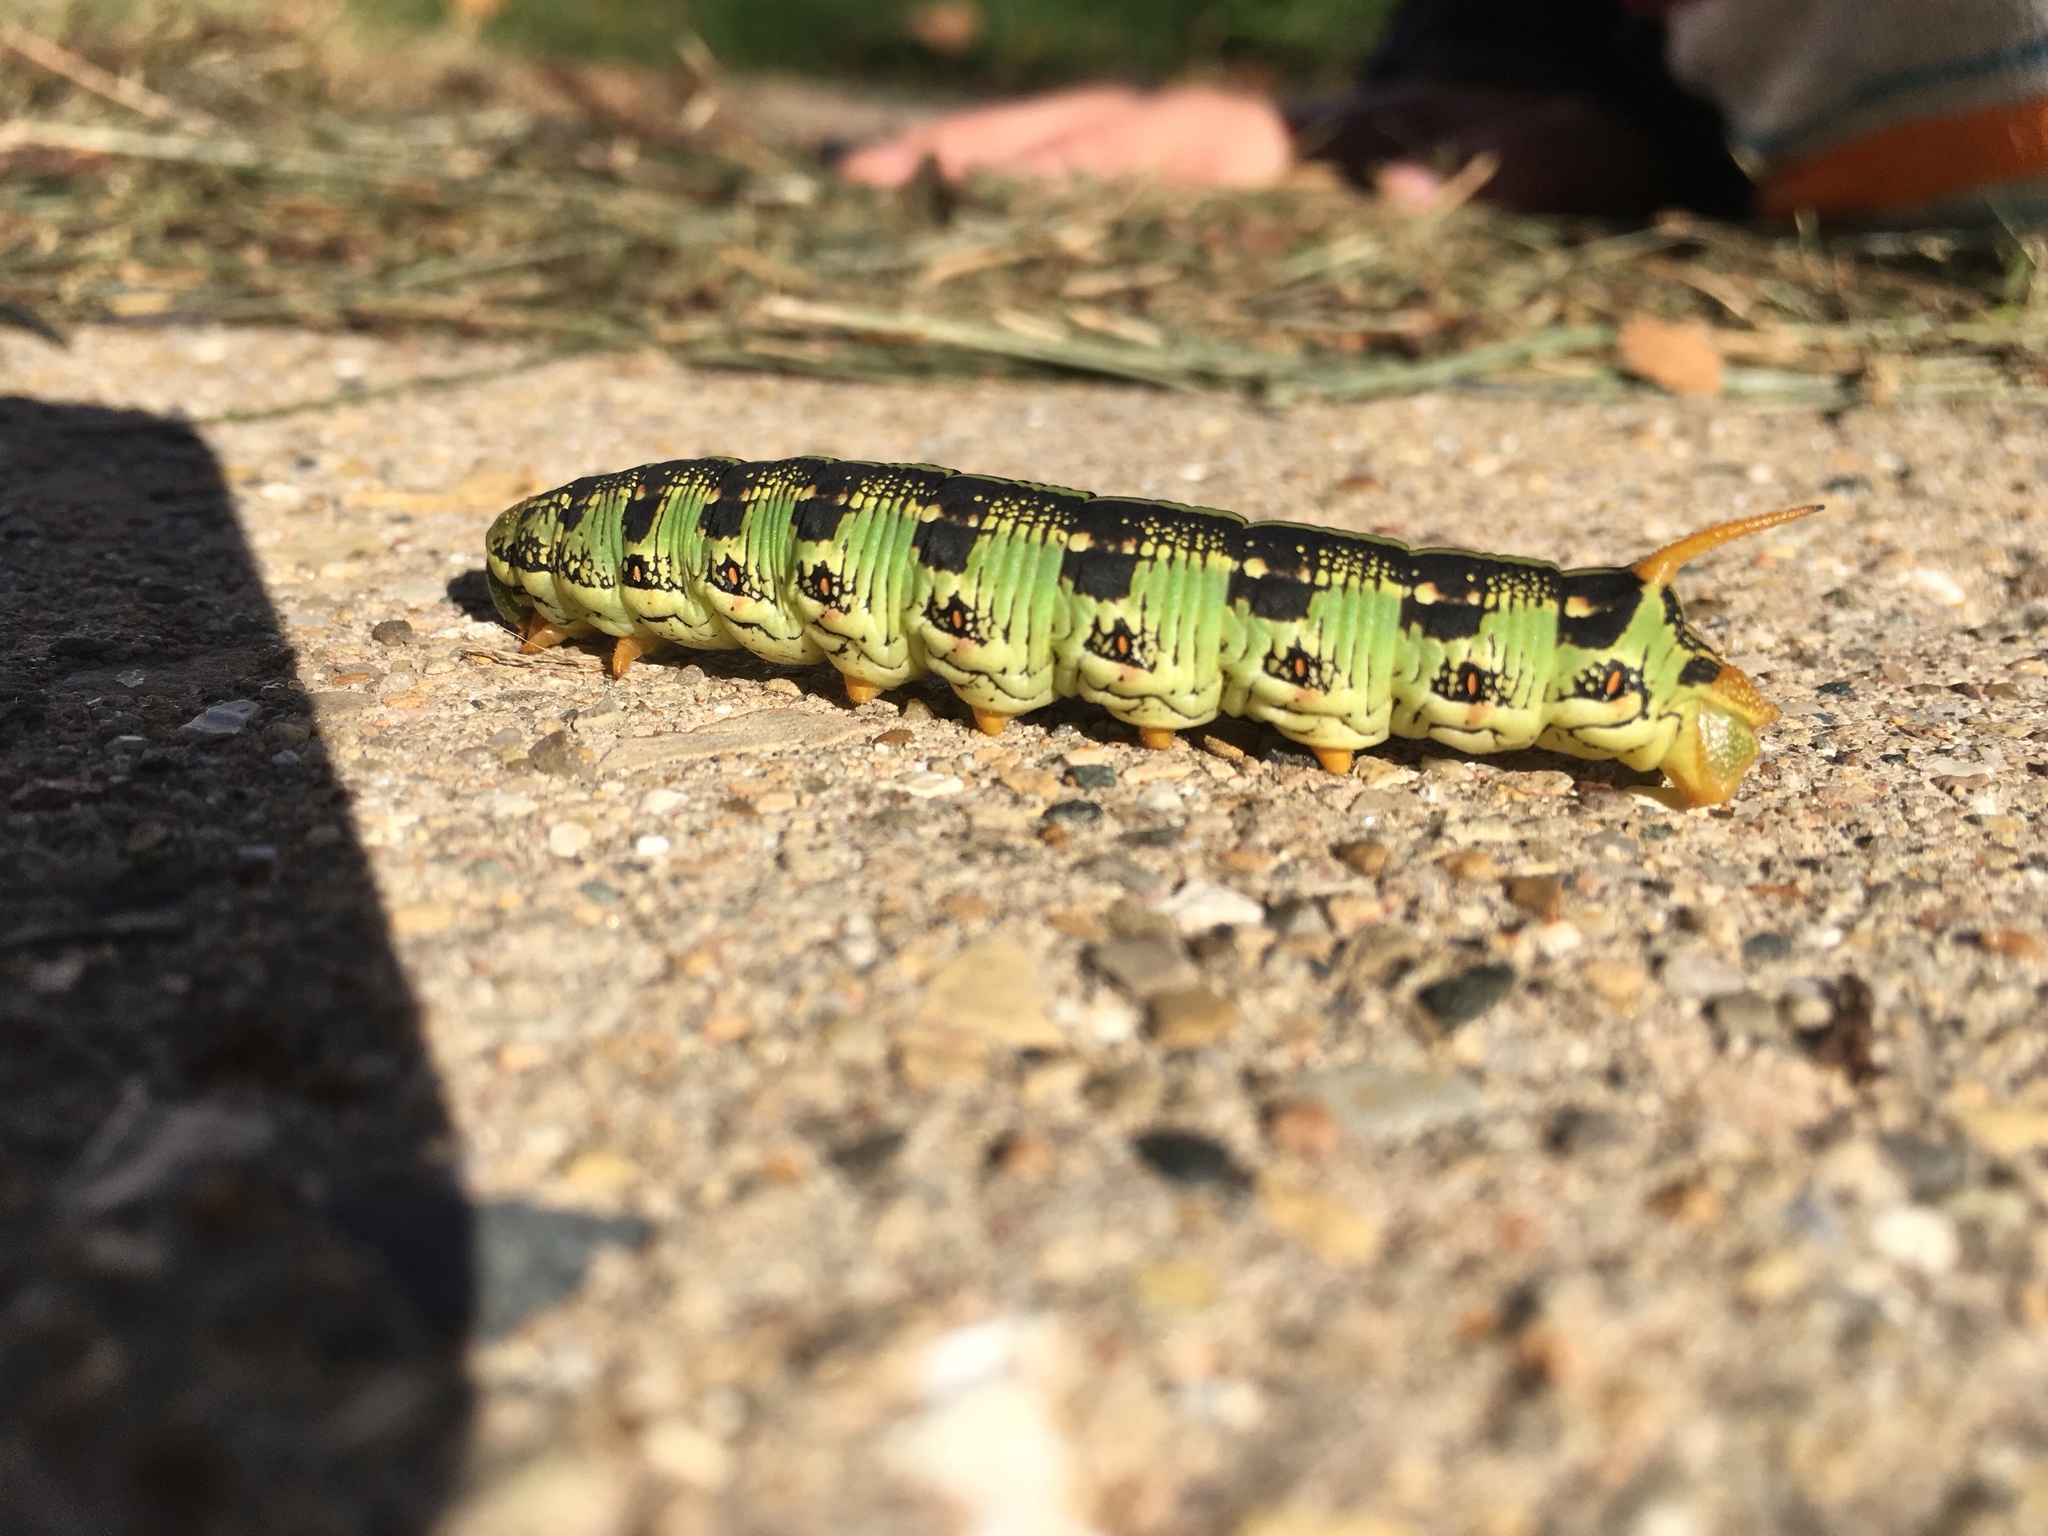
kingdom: Animalia
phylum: Arthropoda
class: Insecta
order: Lepidoptera
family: Sphingidae
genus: Hyles
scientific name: Hyles lineata
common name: White-lined sphinx
